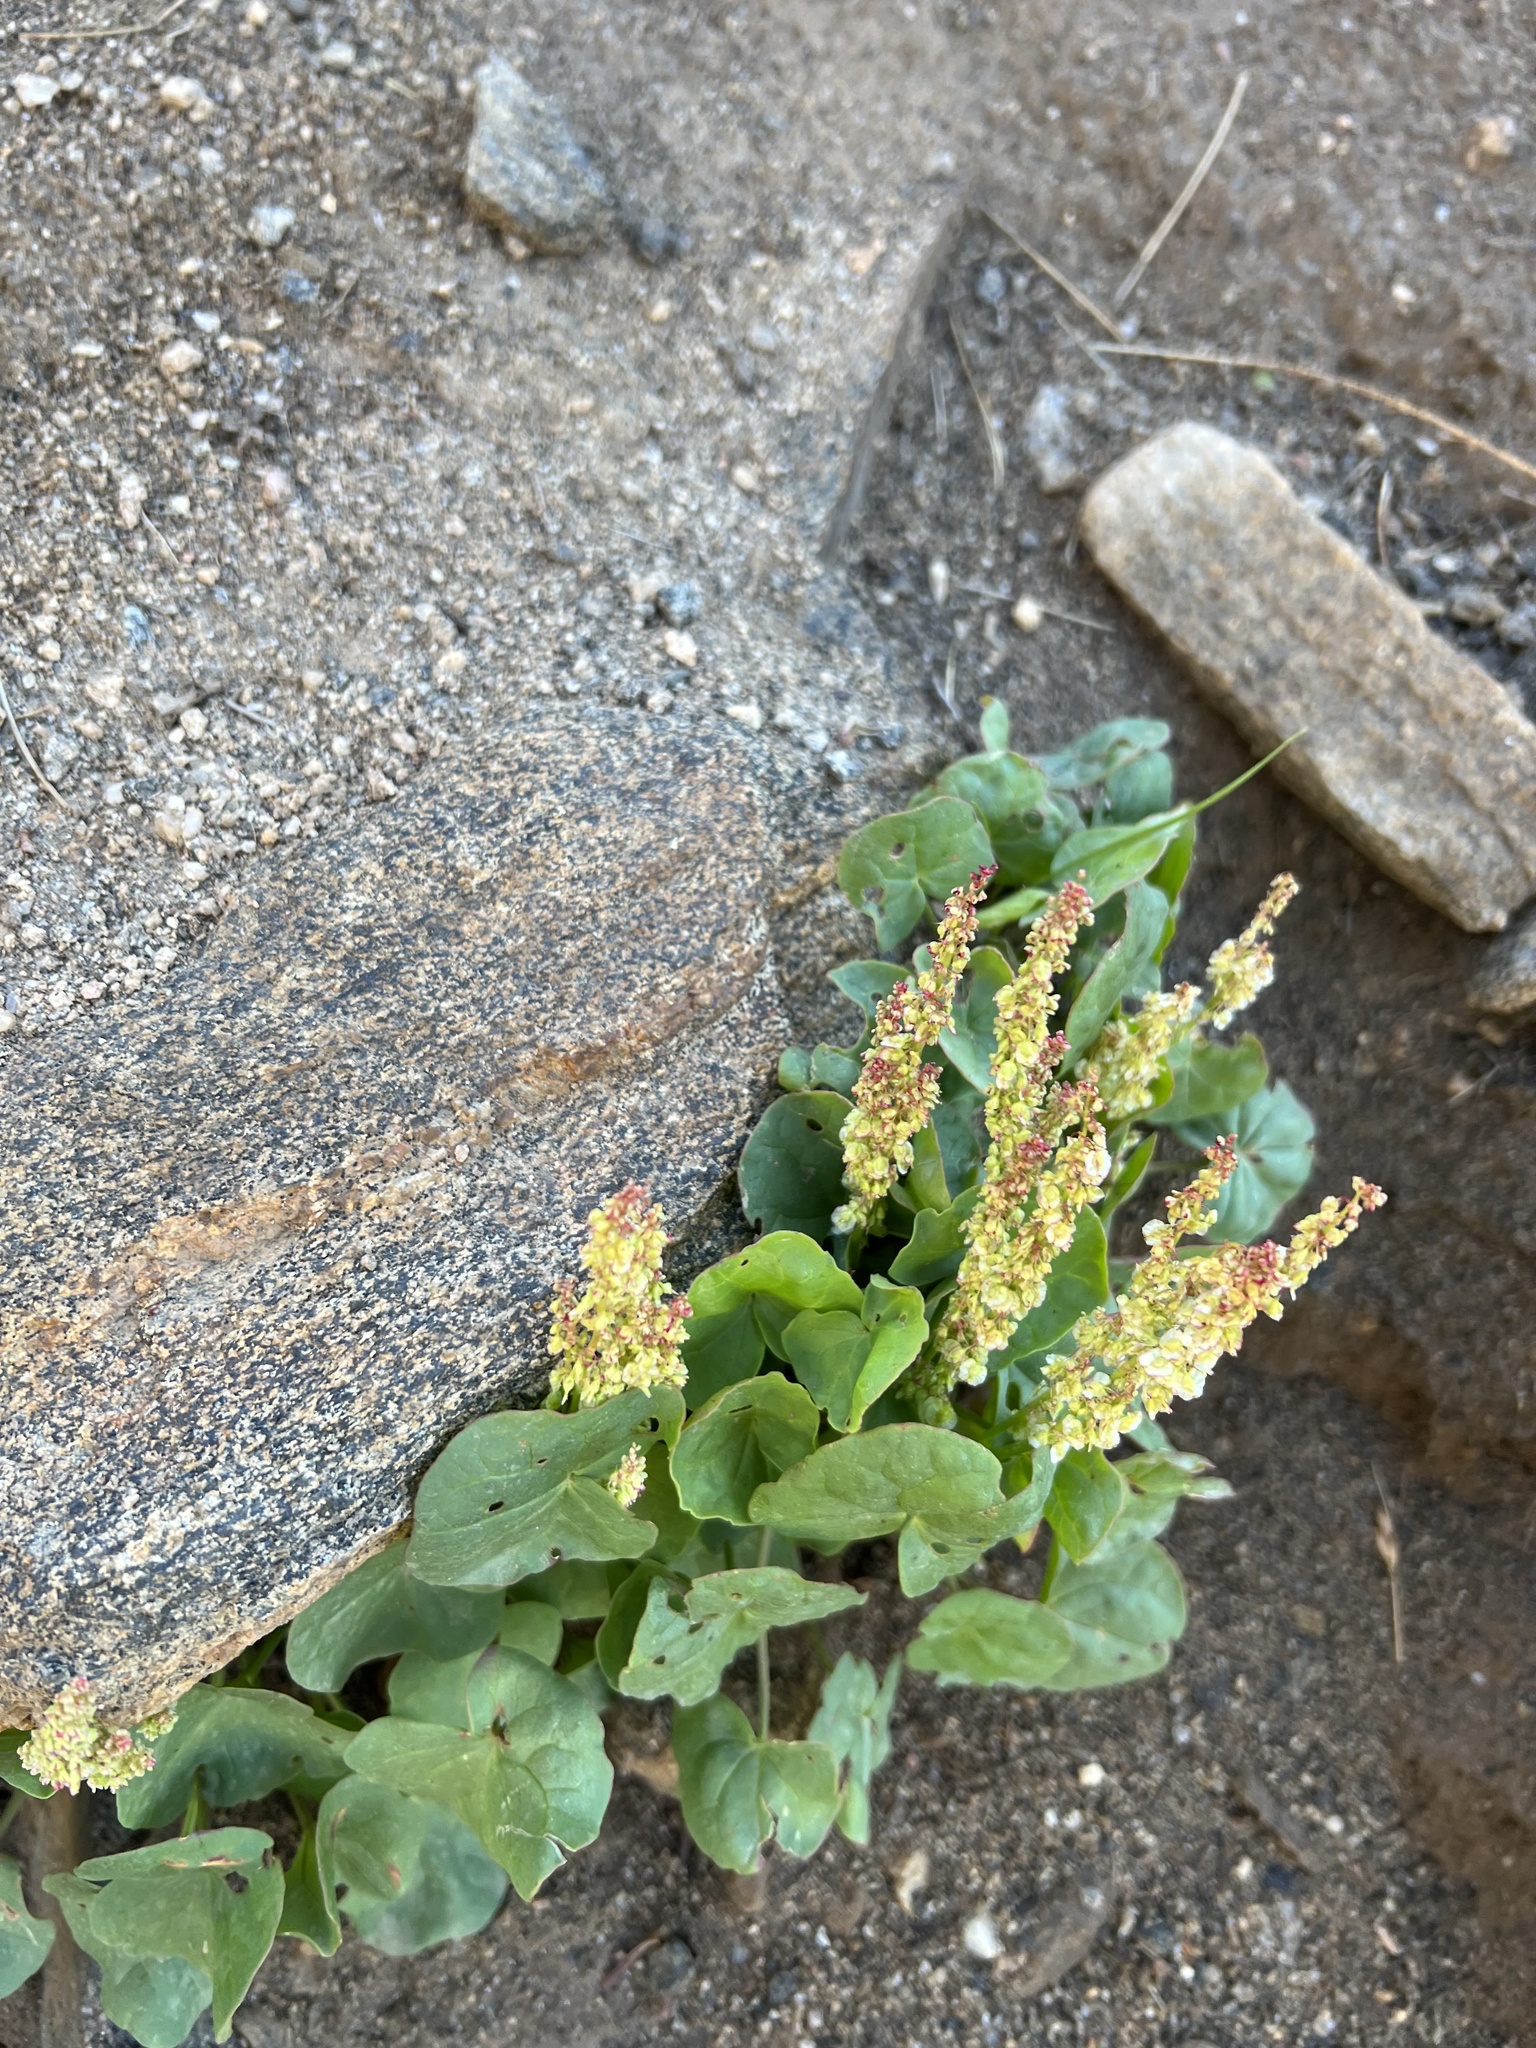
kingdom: Plantae
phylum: Tracheophyta
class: Magnoliopsida
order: Caryophyllales
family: Polygonaceae
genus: Oxyria
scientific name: Oxyria digyna
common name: Alpine mountain-sorrel
